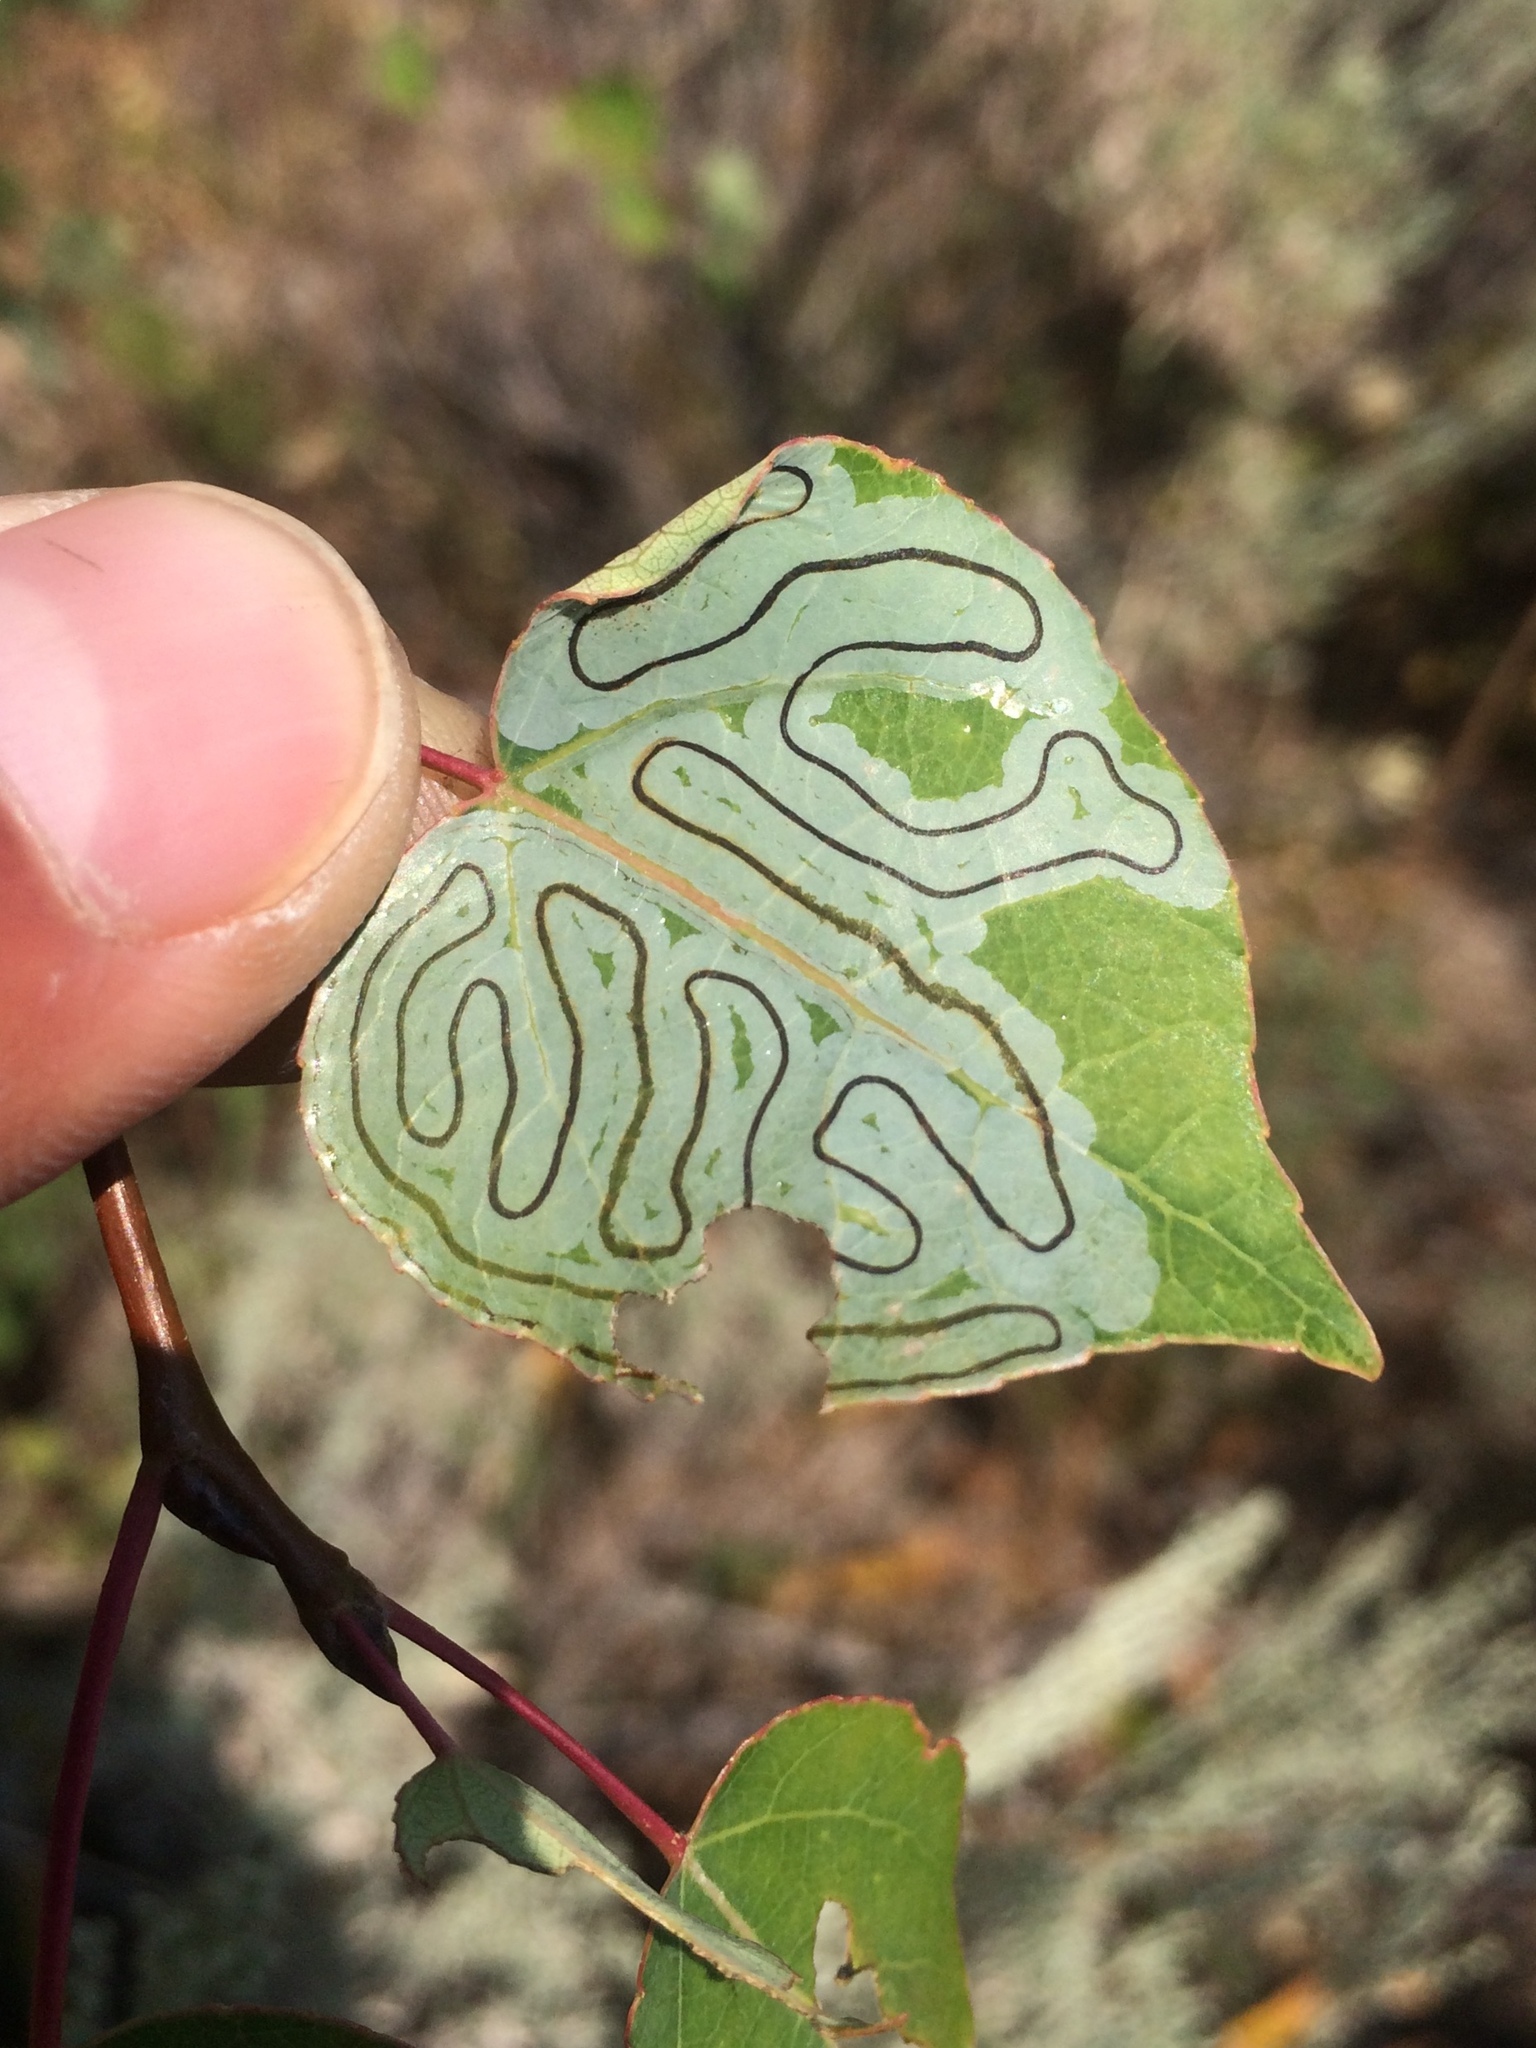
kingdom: Animalia
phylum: Arthropoda
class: Insecta
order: Lepidoptera
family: Gracillariidae
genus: Phyllocnistis
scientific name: Phyllocnistis populiella
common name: Aspen serpentine leafminer moth
